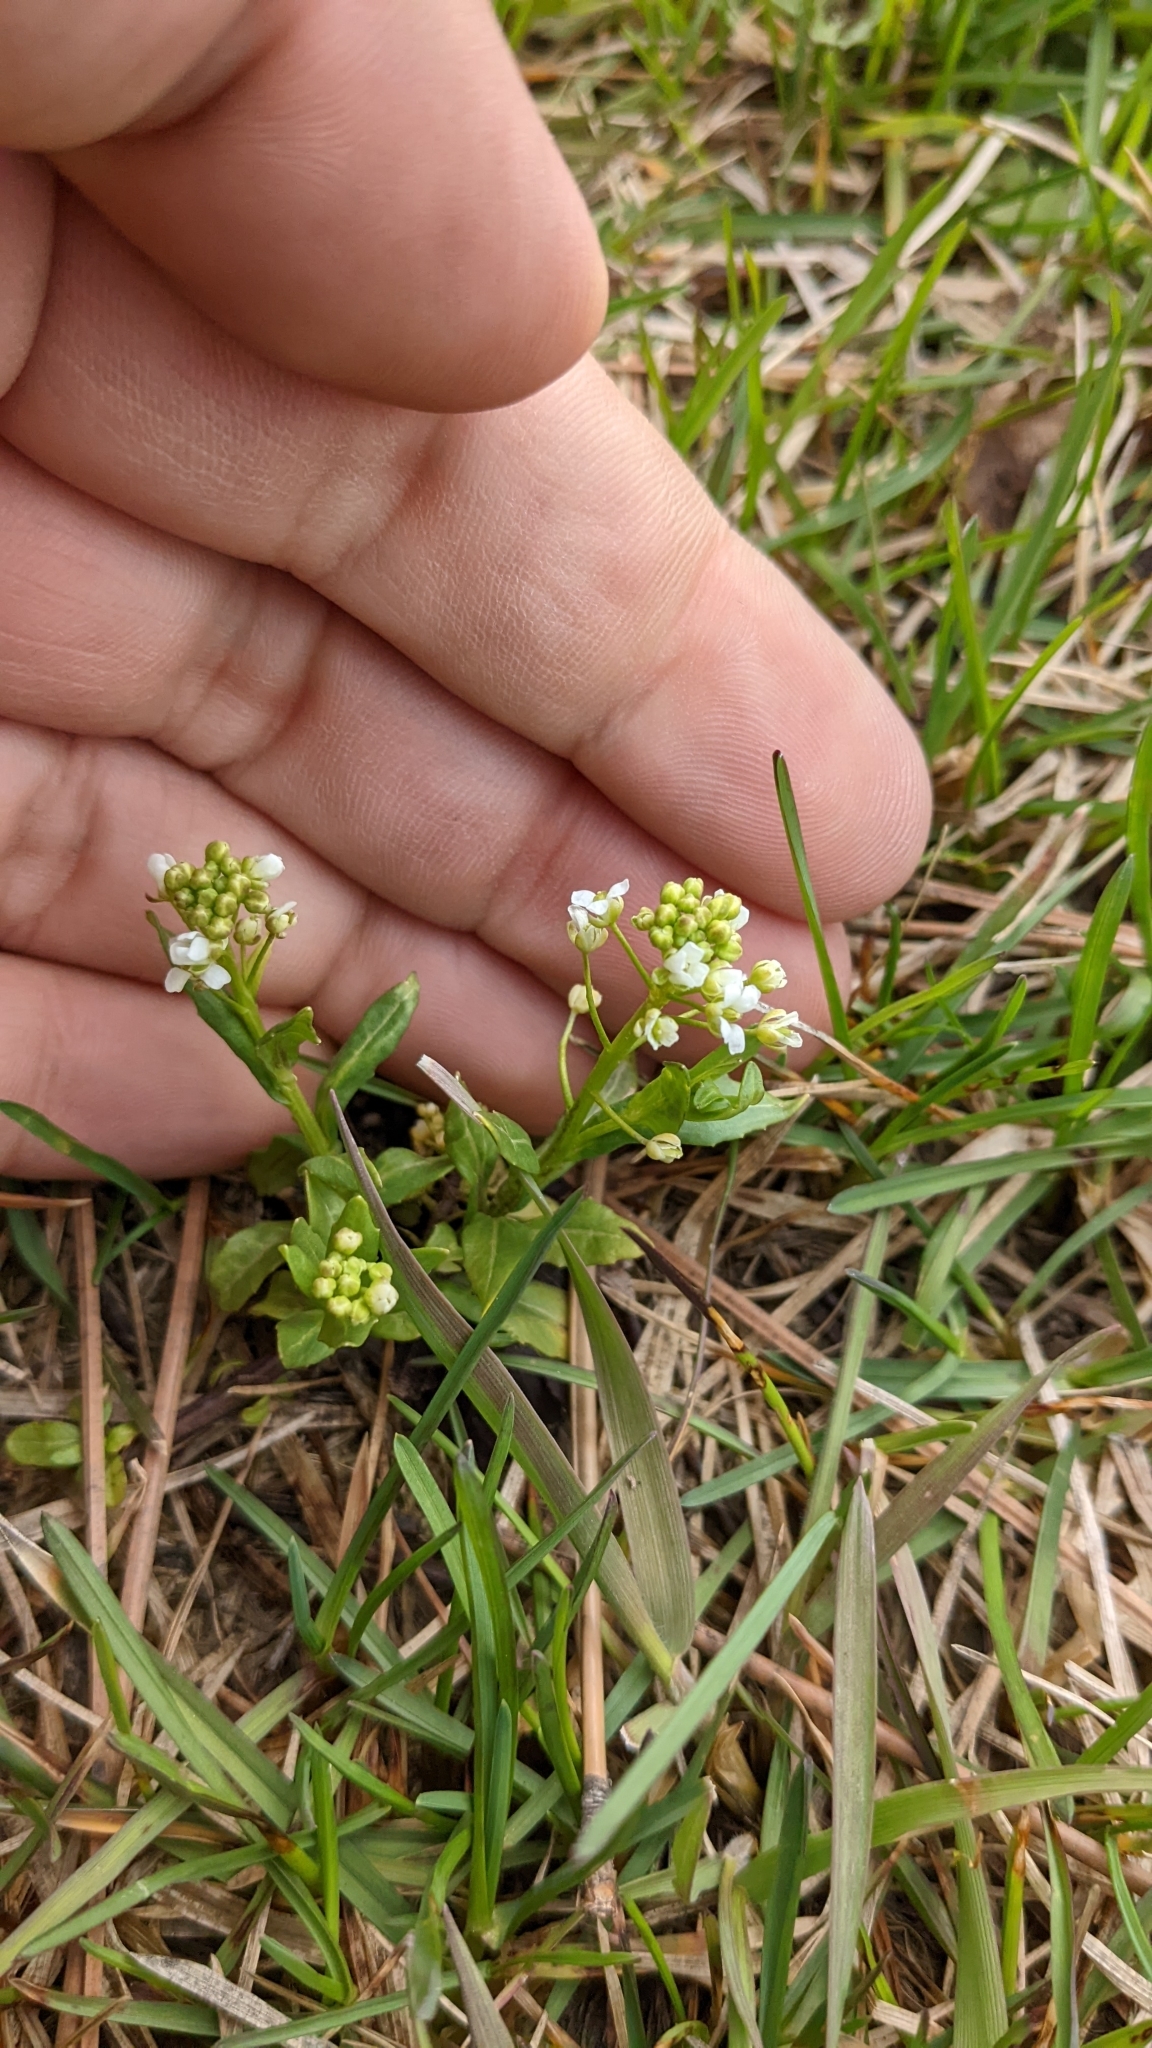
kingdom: Plantae
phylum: Tracheophyta
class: Magnoliopsida
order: Brassicales
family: Brassicaceae
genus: Thlaspi
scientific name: Thlaspi arvense
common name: Field pennycress
